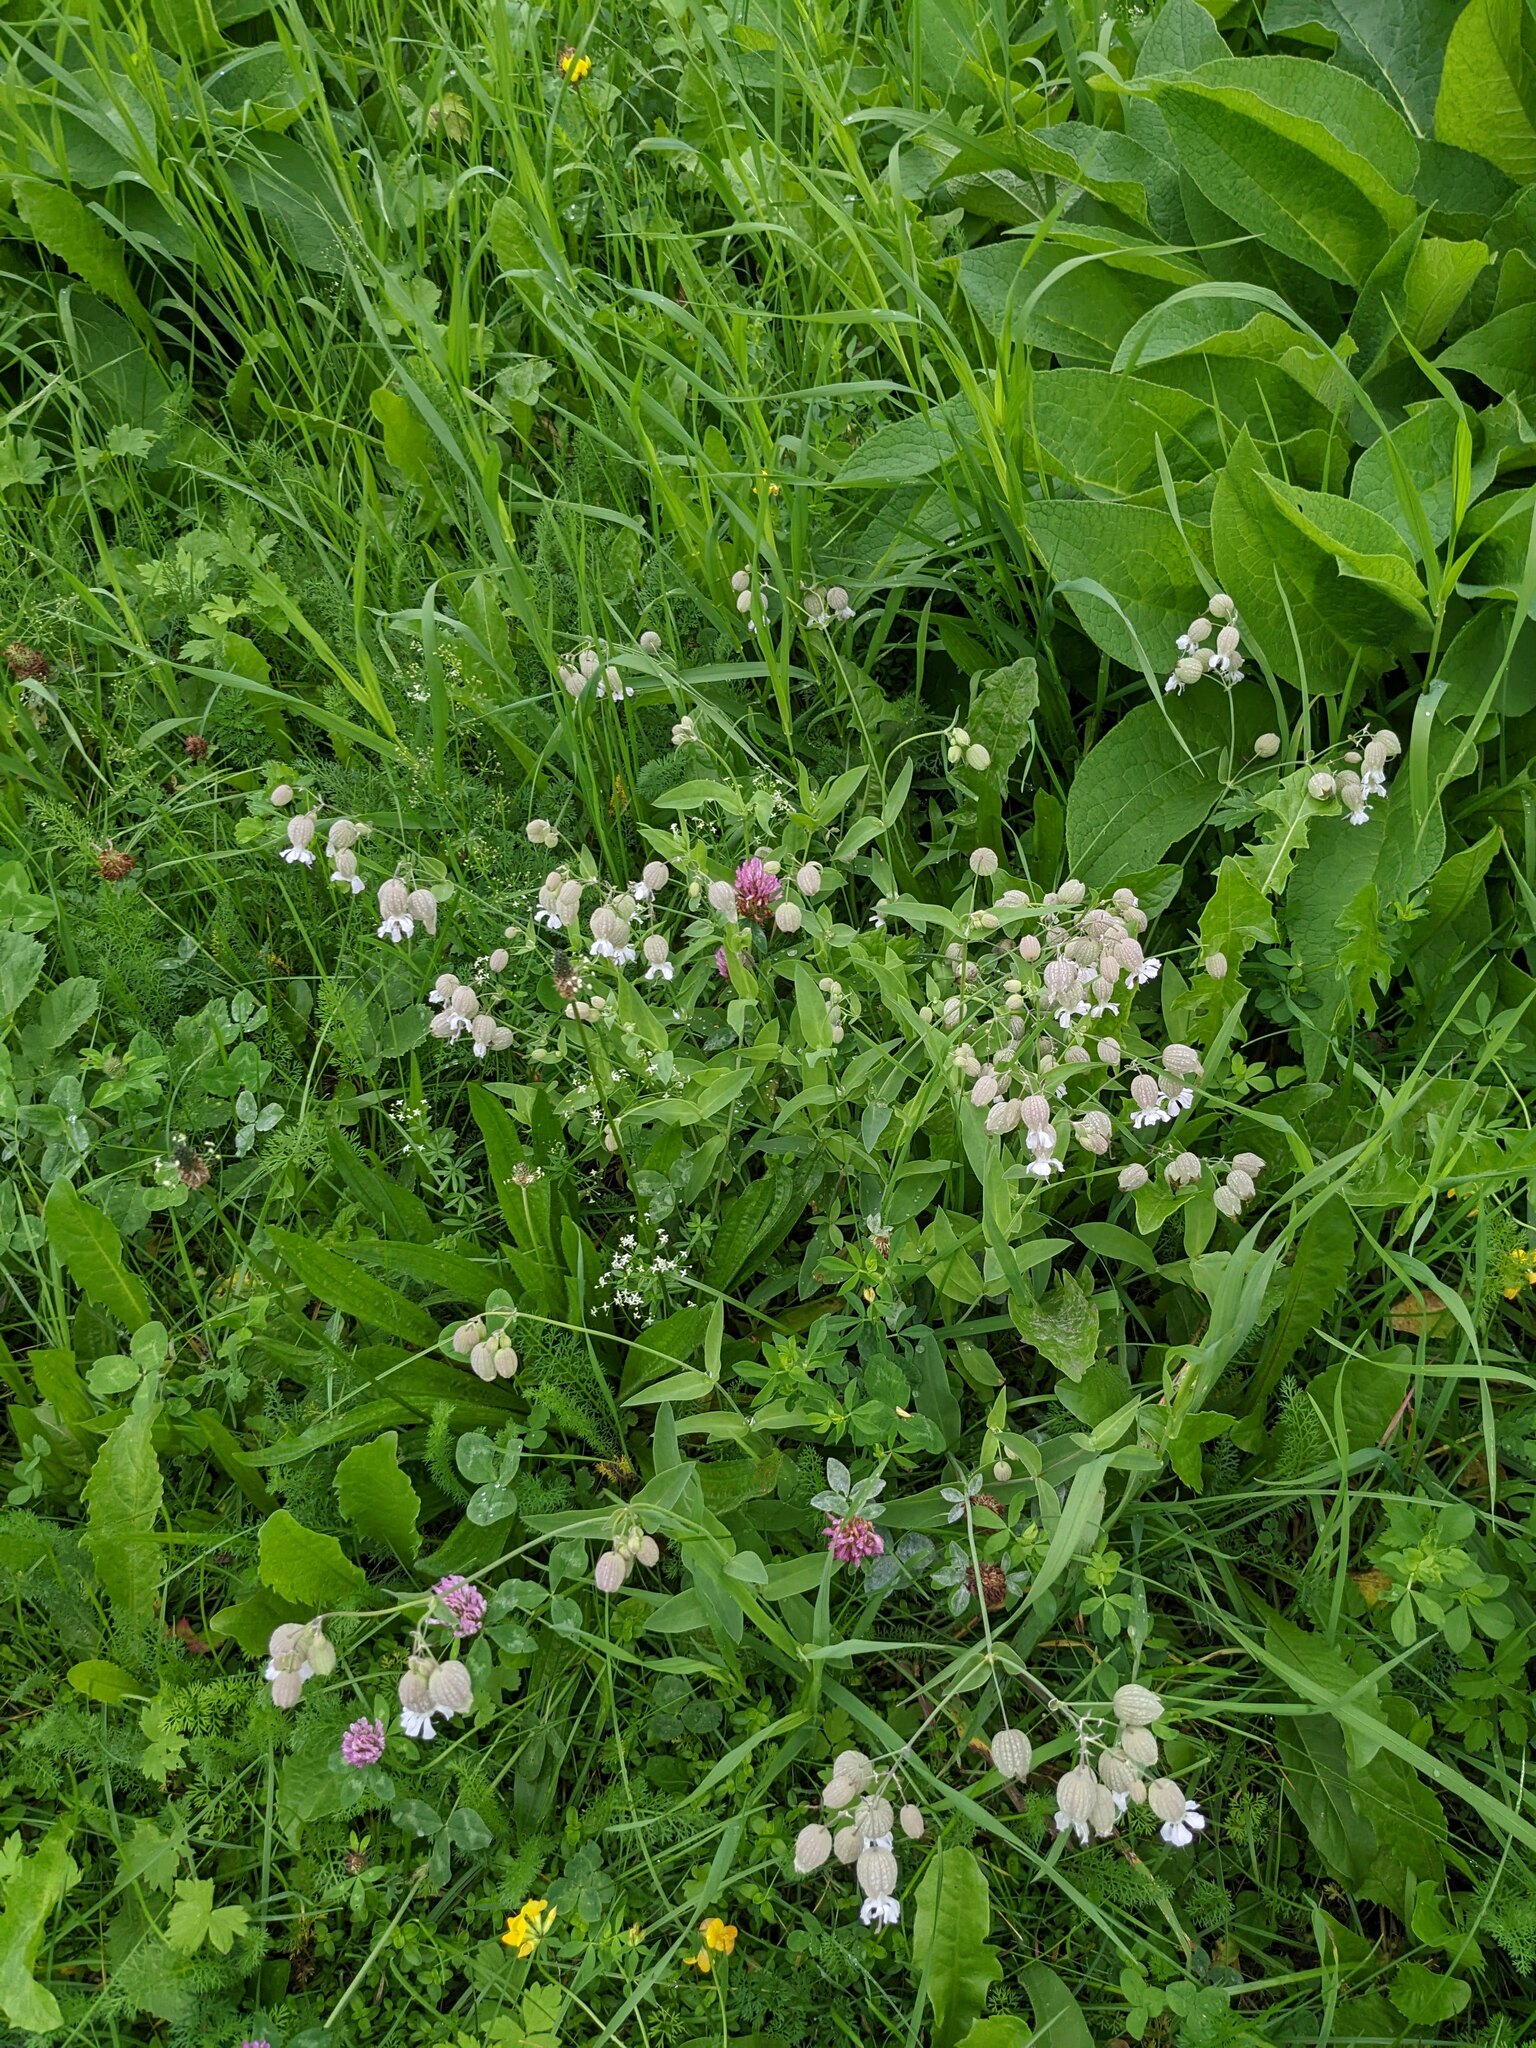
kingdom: Plantae
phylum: Tracheophyta
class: Magnoliopsida
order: Caryophyllales
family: Caryophyllaceae
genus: Silene
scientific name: Silene vulgaris
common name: Bladder campion
